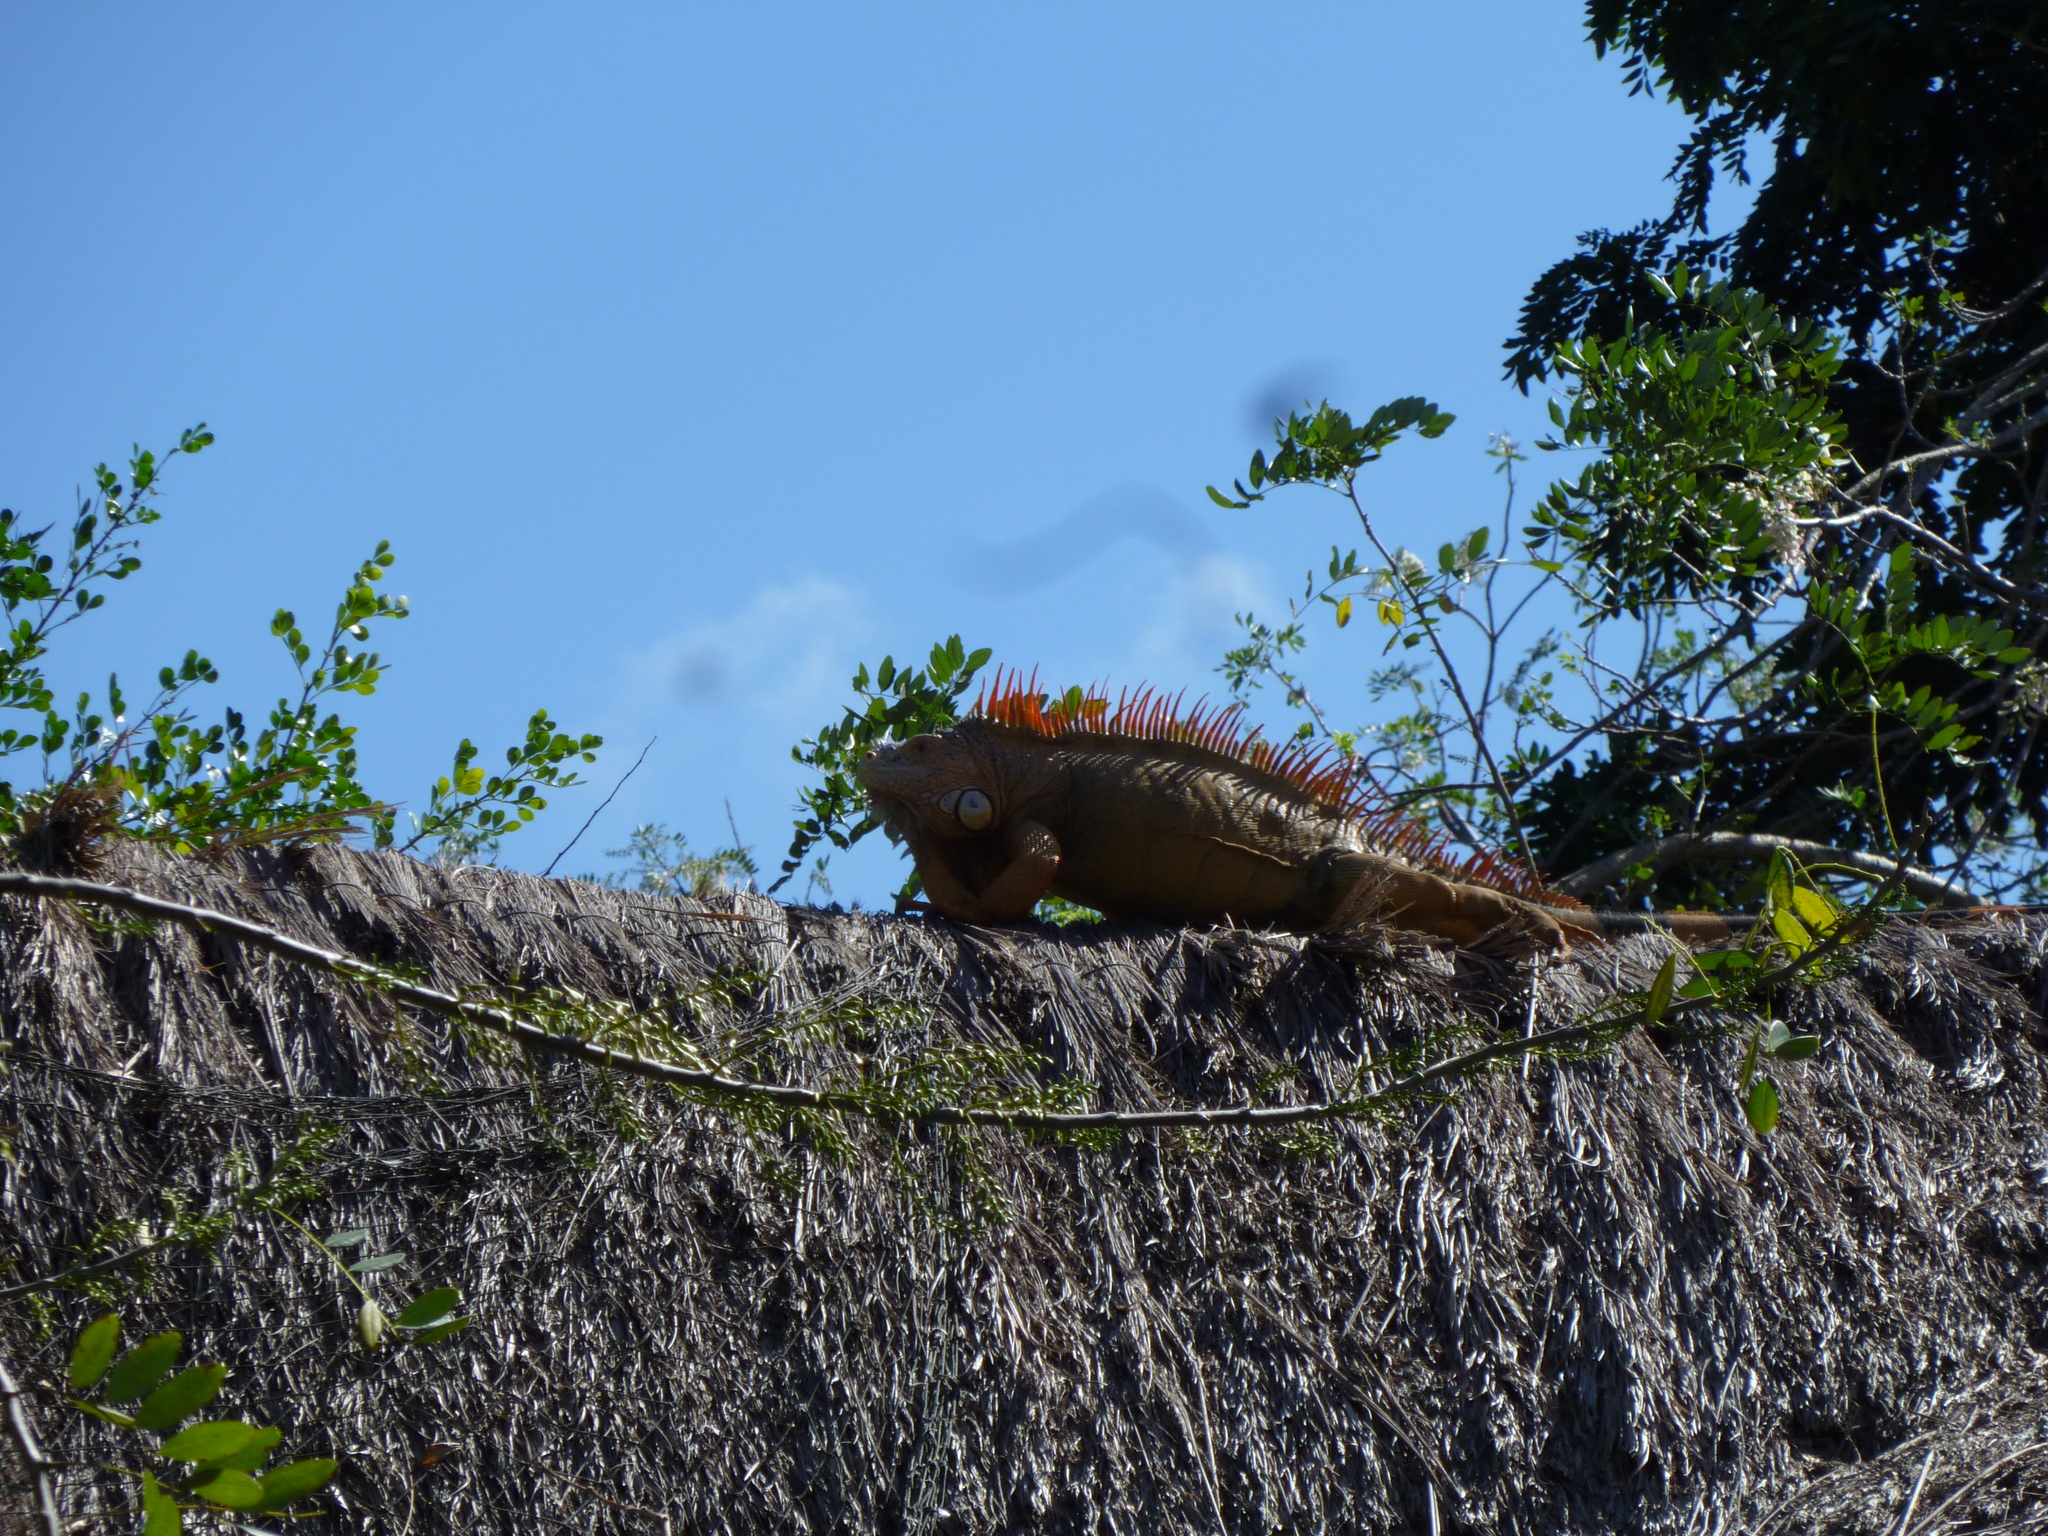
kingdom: Animalia
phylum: Chordata
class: Squamata
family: Iguanidae
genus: Iguana
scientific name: Iguana iguana
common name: Green iguana
